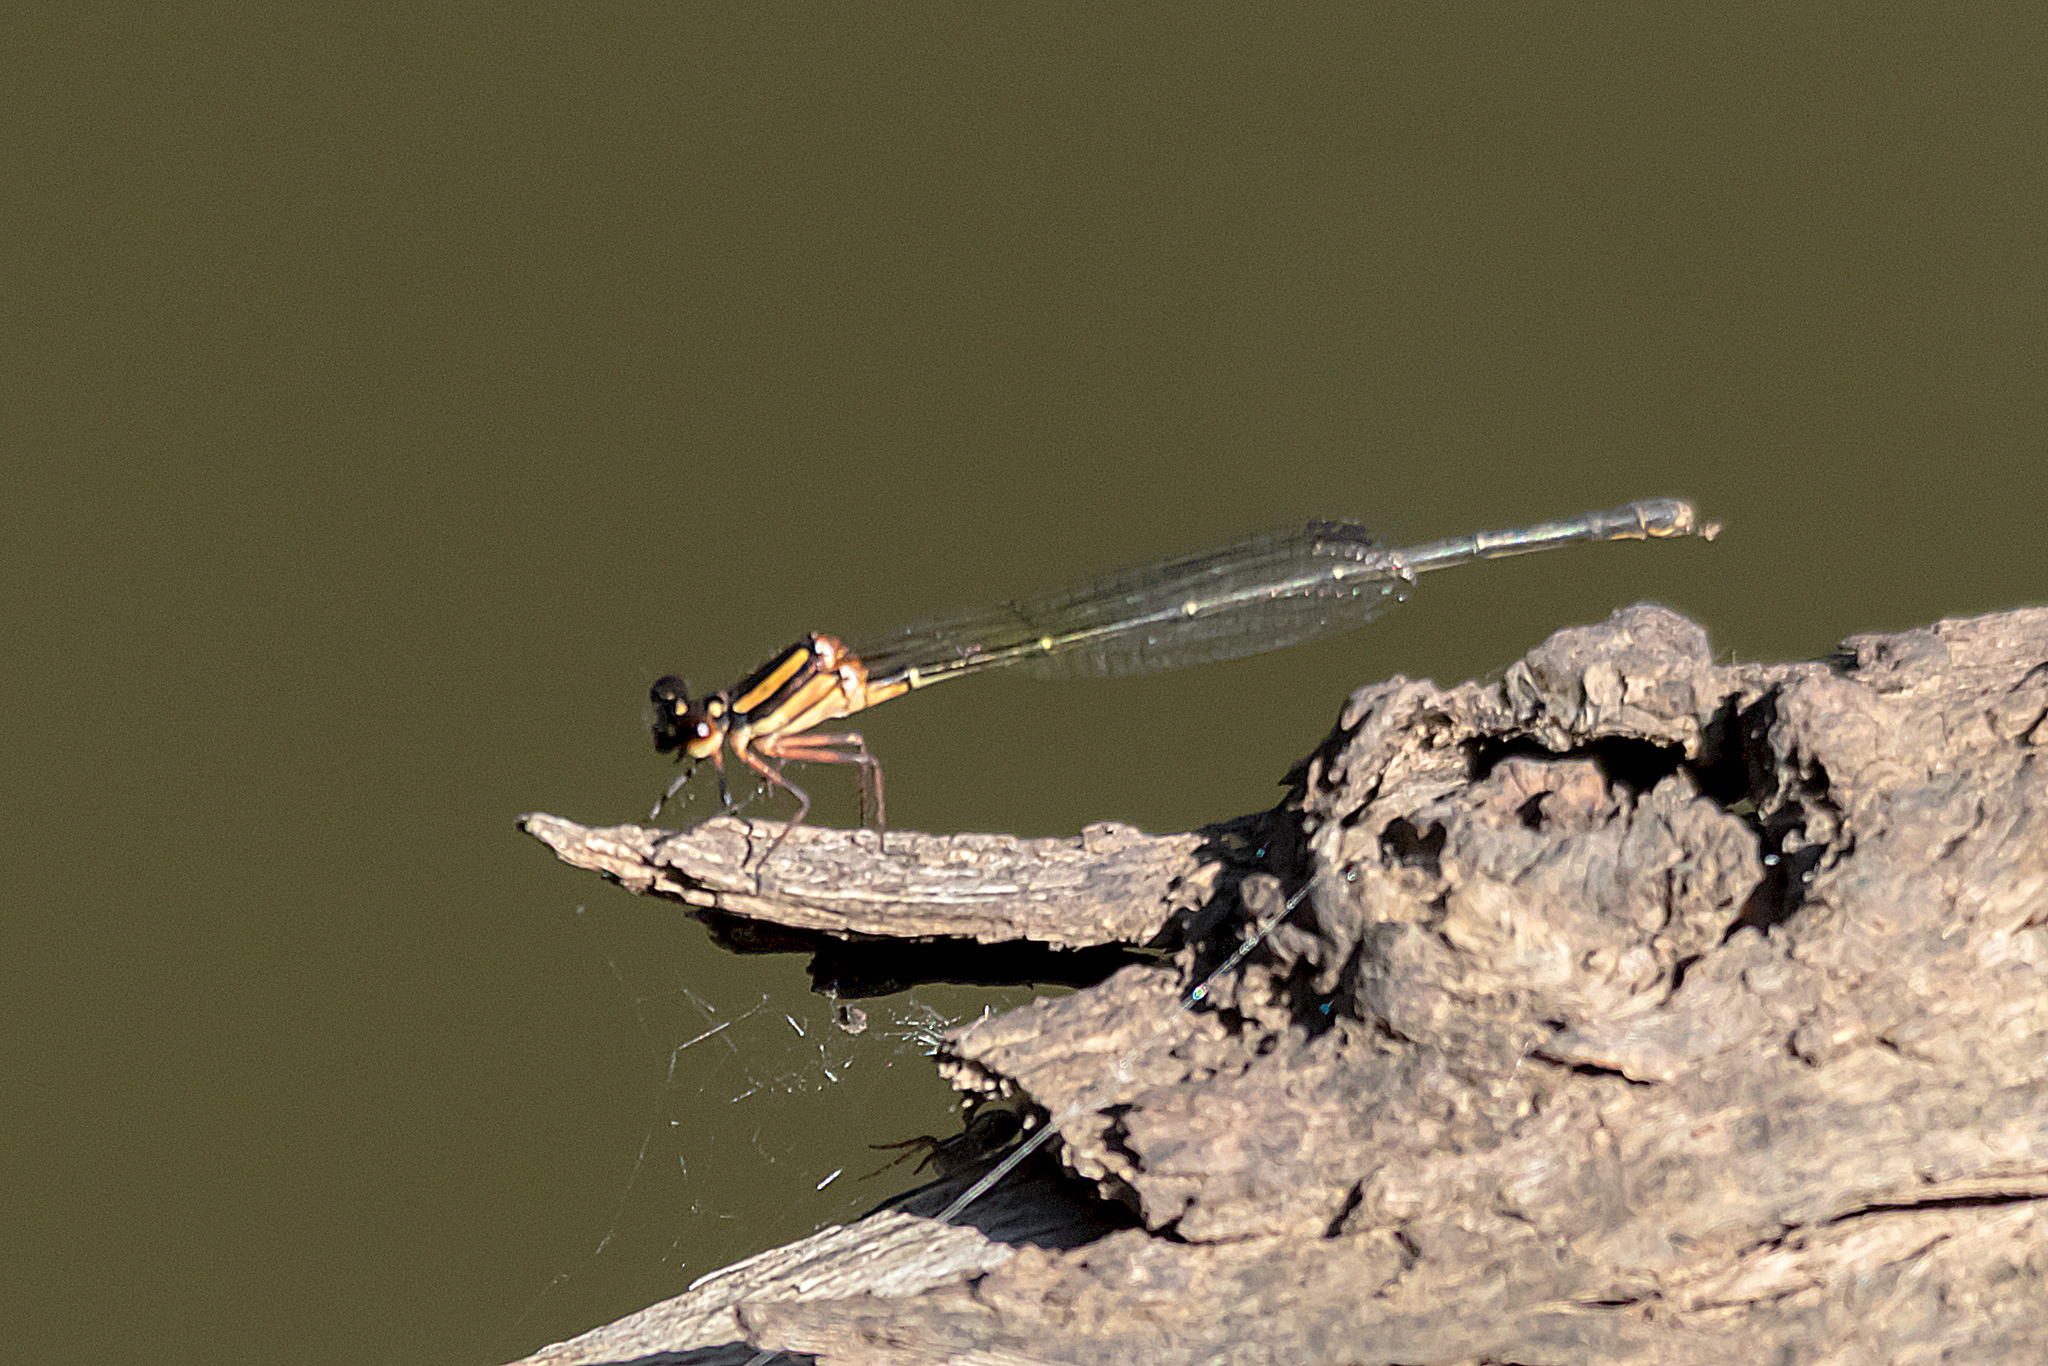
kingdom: Animalia
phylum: Arthropoda
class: Insecta
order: Odonata
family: Platycnemididae
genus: Nososticta
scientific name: Nososticta solida
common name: Orange threadtail
